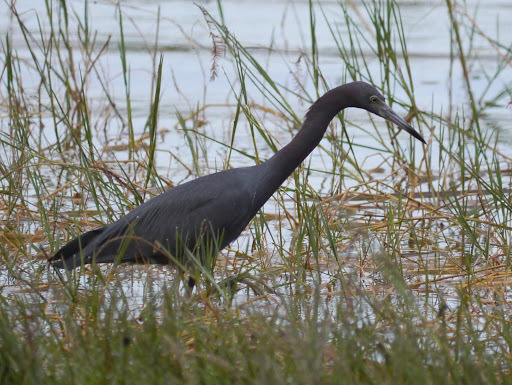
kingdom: Animalia
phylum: Chordata
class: Aves
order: Pelecaniformes
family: Ardeidae
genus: Egretta
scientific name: Egretta caerulea
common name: Little blue heron
